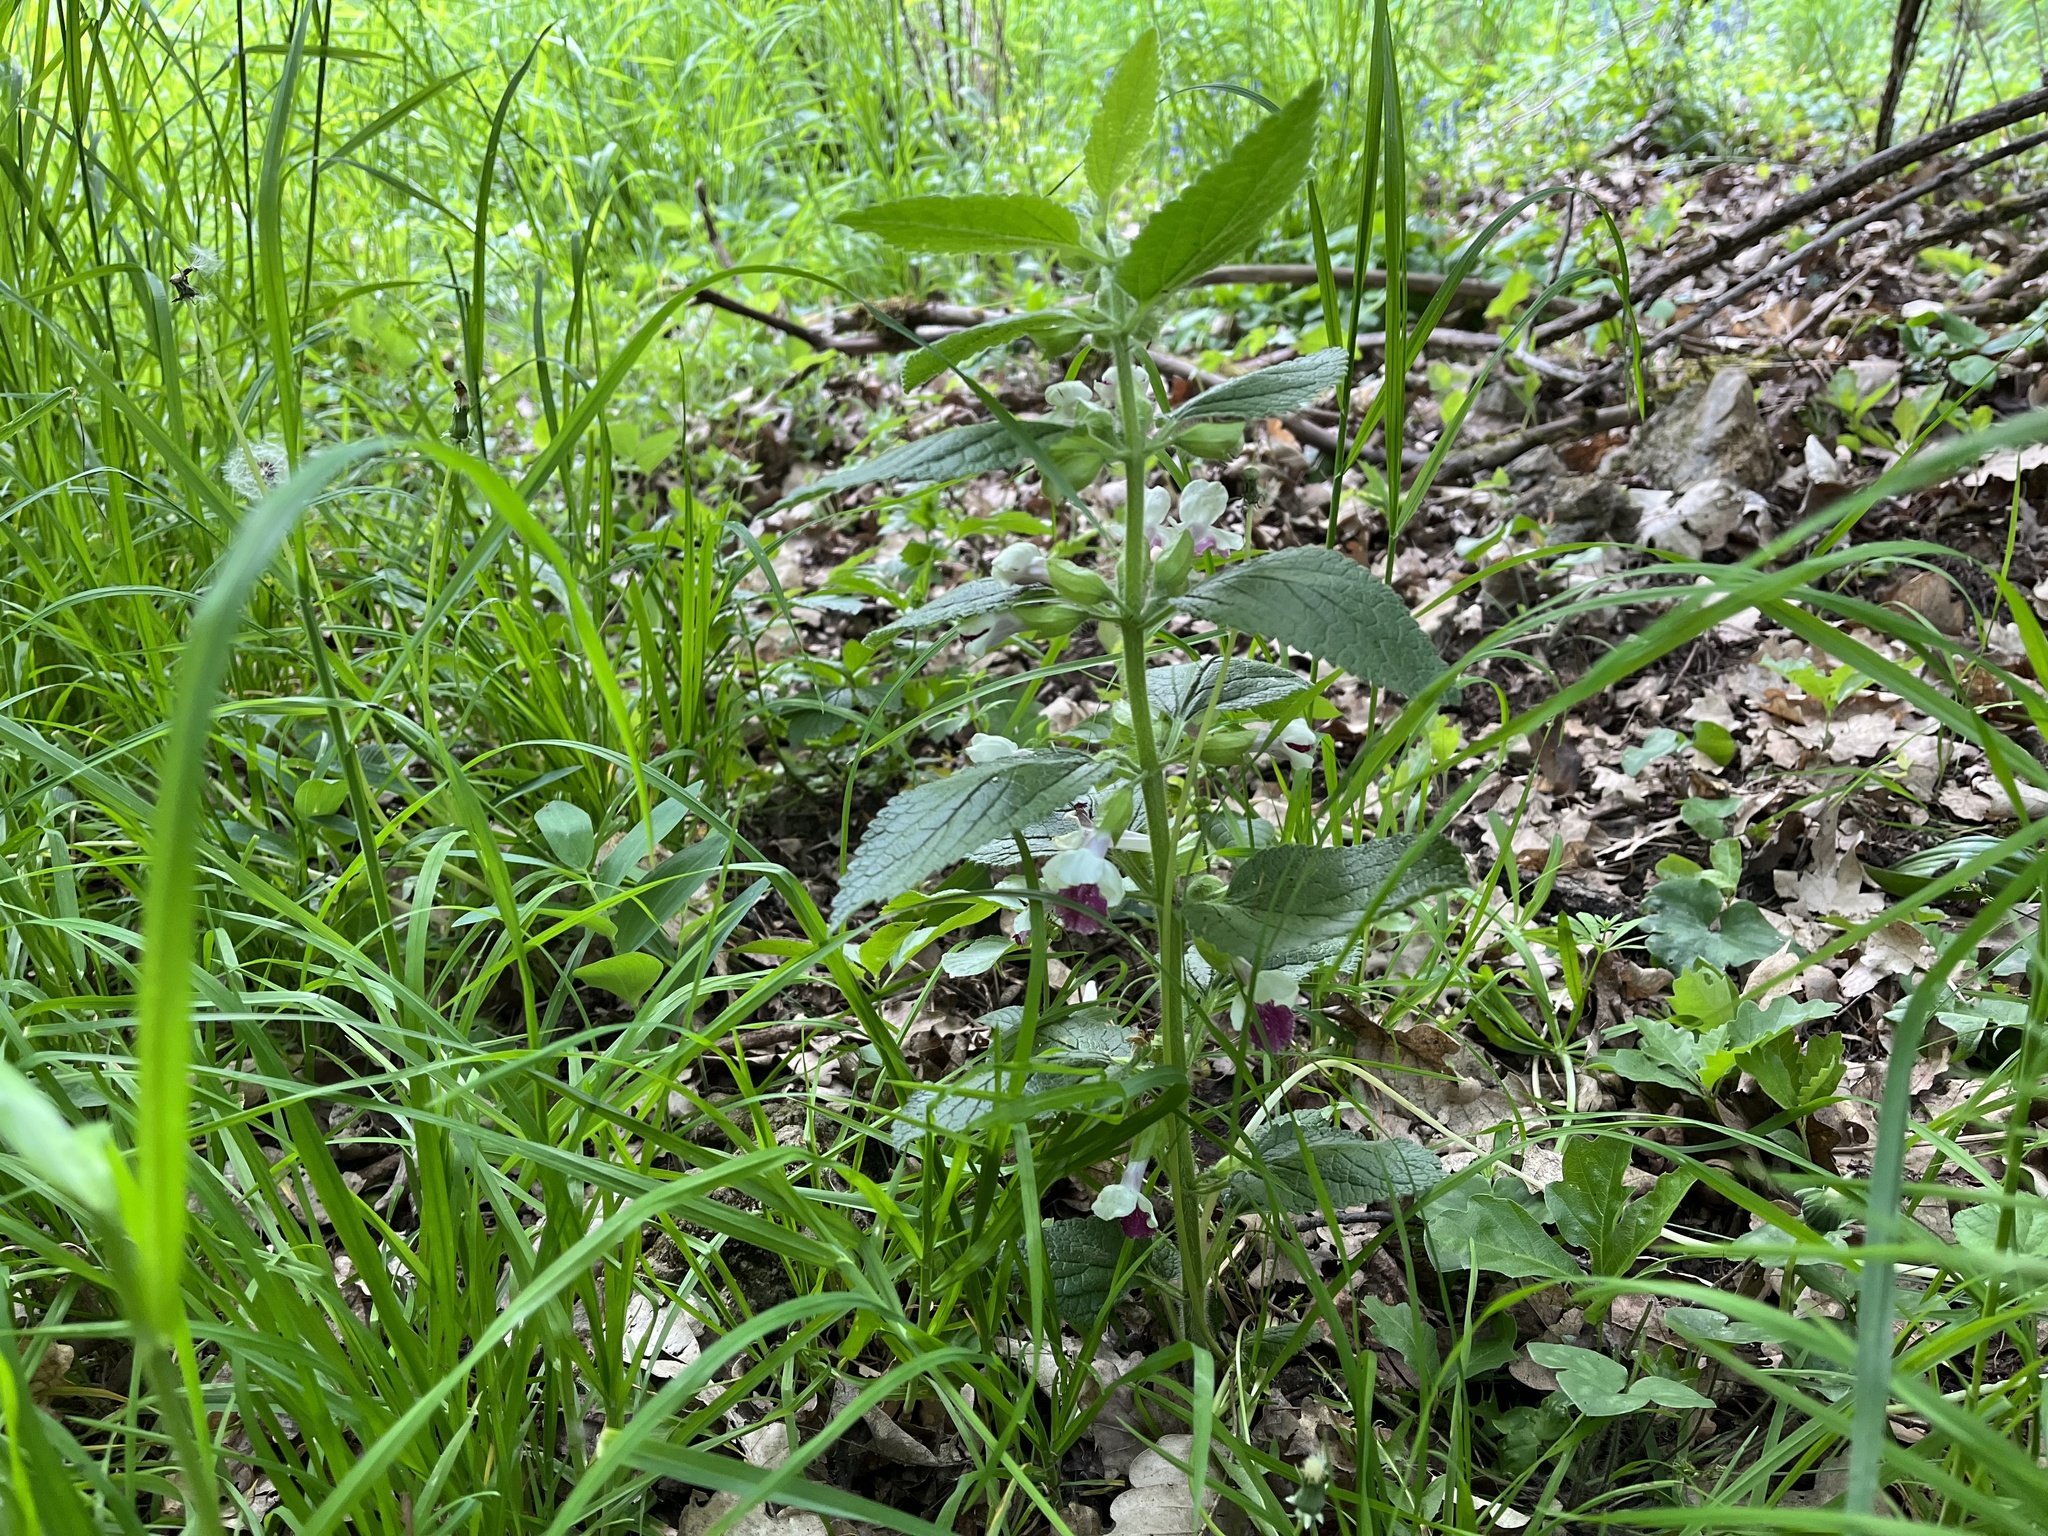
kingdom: Plantae
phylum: Tracheophyta
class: Magnoliopsida
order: Lamiales
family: Lamiaceae
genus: Melittis
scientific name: Melittis melissophyllum
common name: Bastard balm
